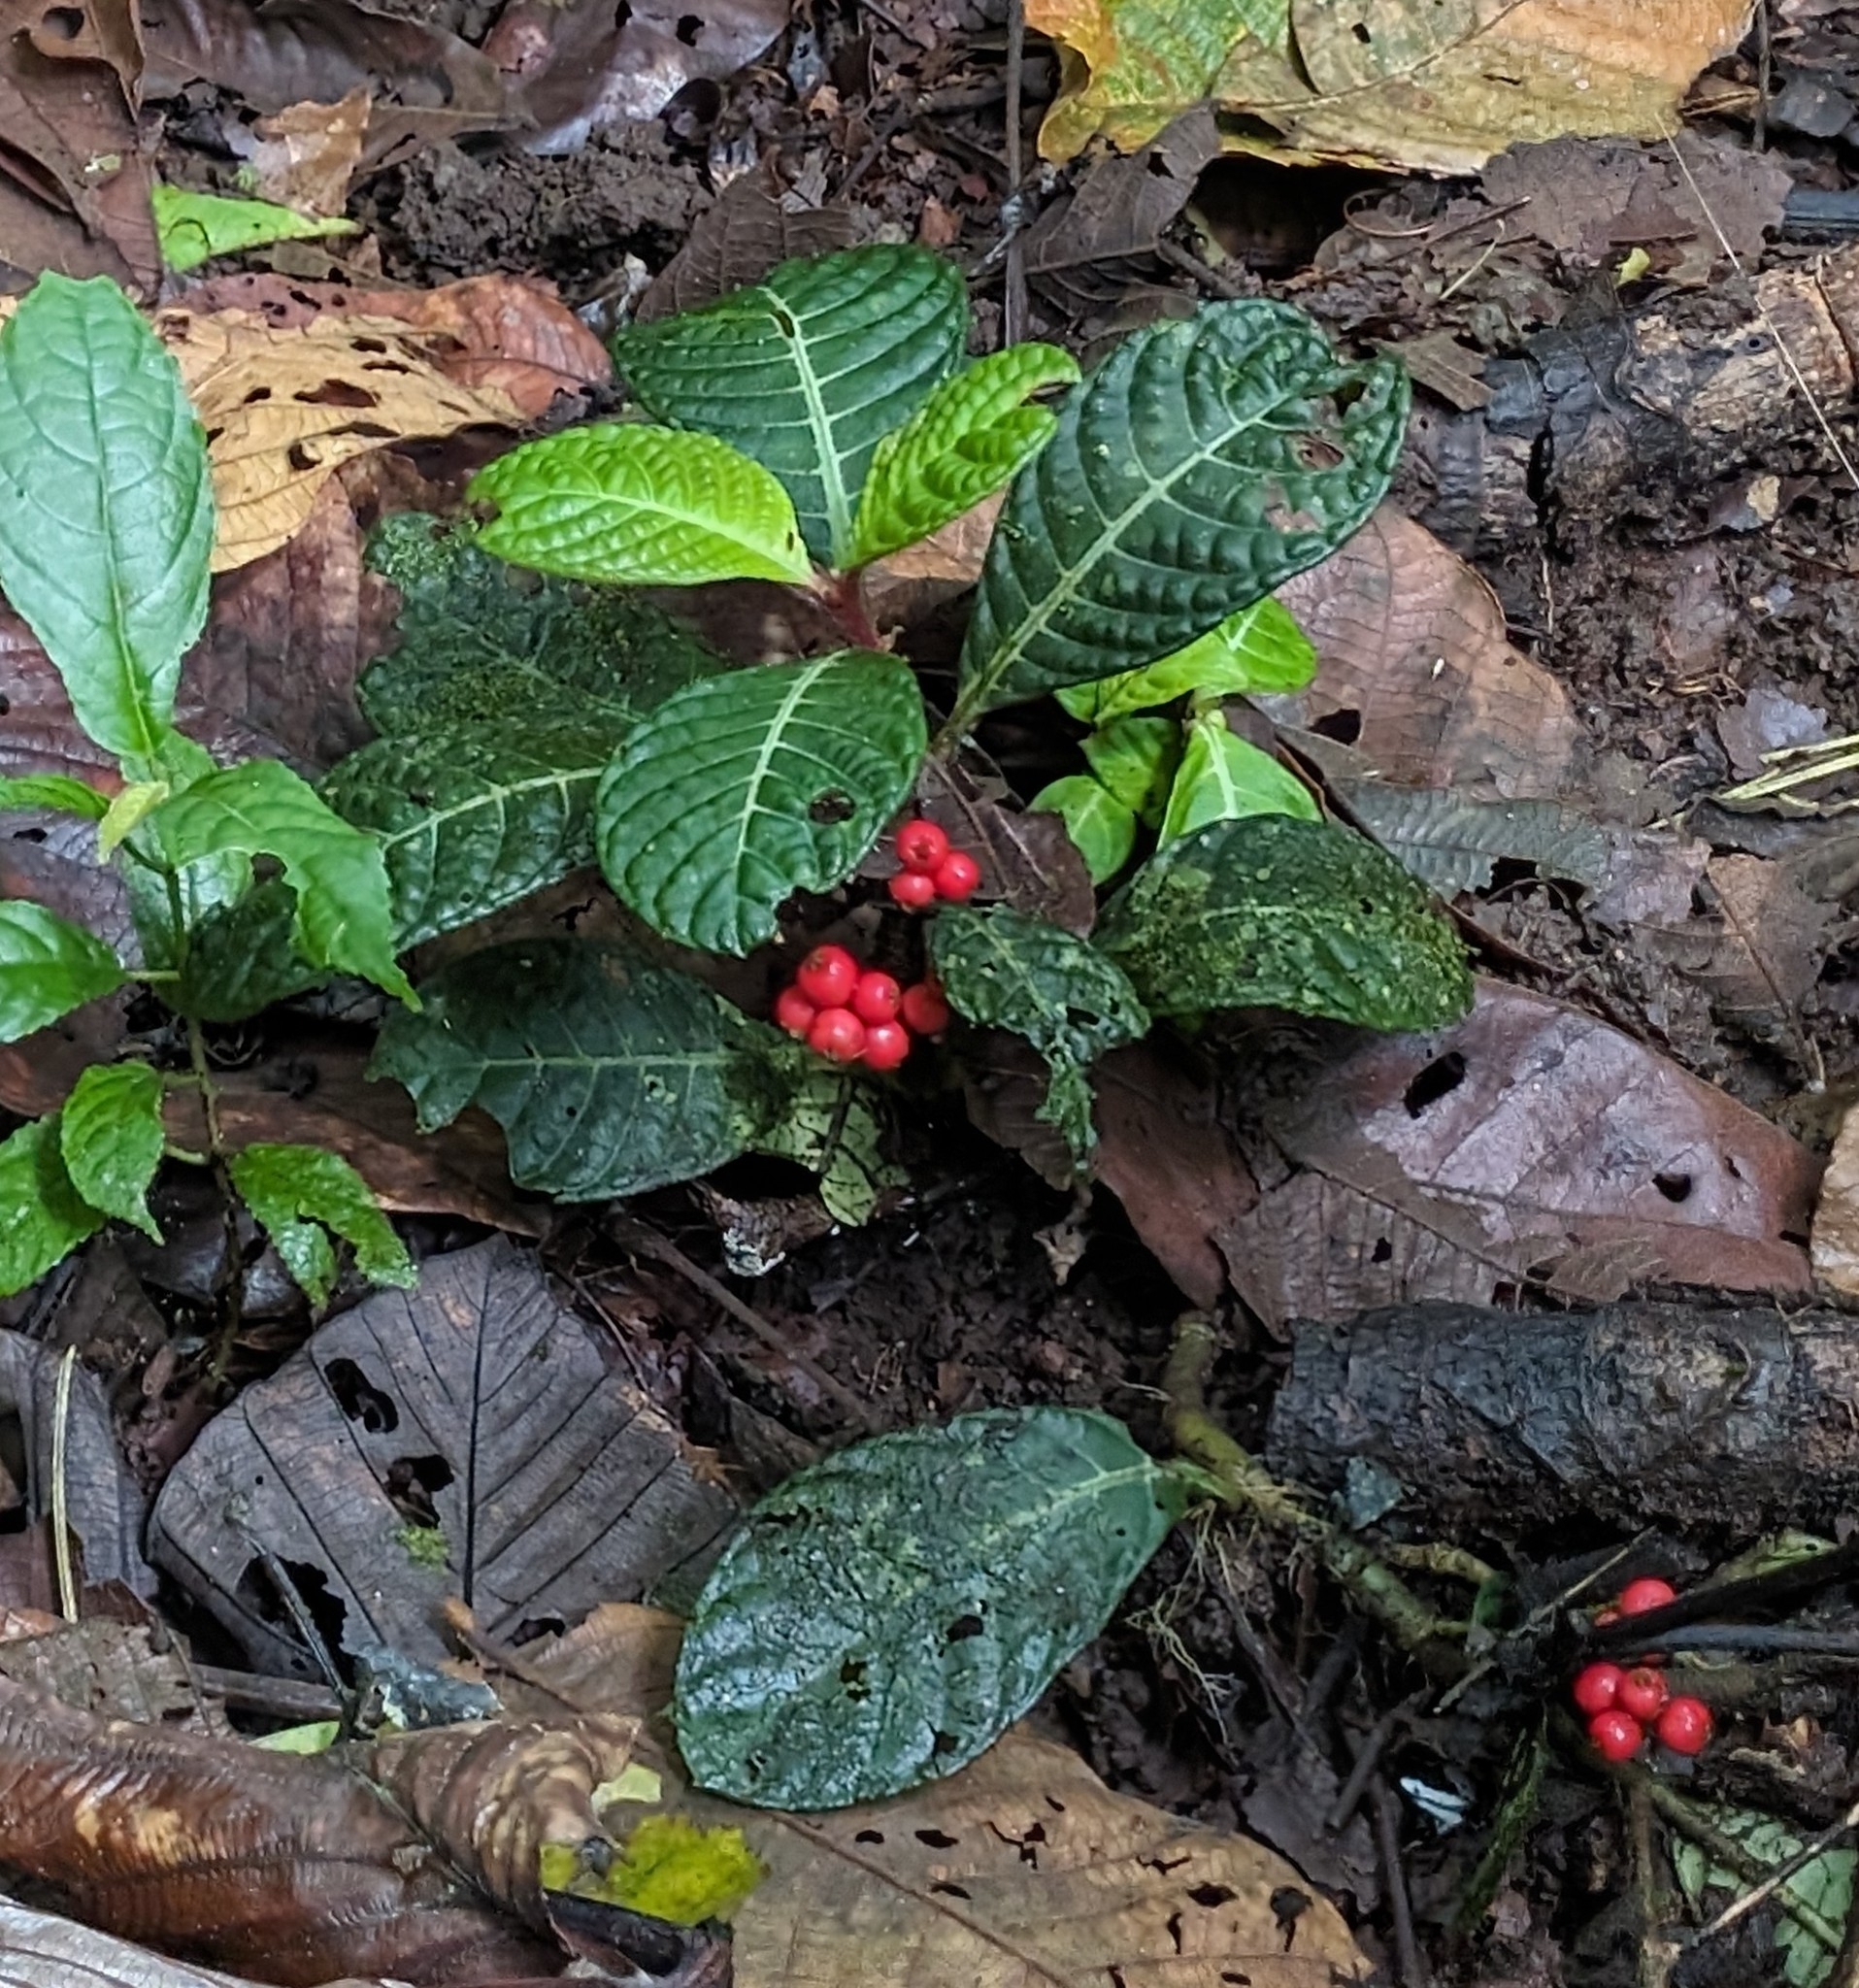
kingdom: Plantae
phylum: Tracheophyta
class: Magnoliopsida
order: Gentianales
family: Rubiaceae
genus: Notopleura
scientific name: Notopleura uliginosa
